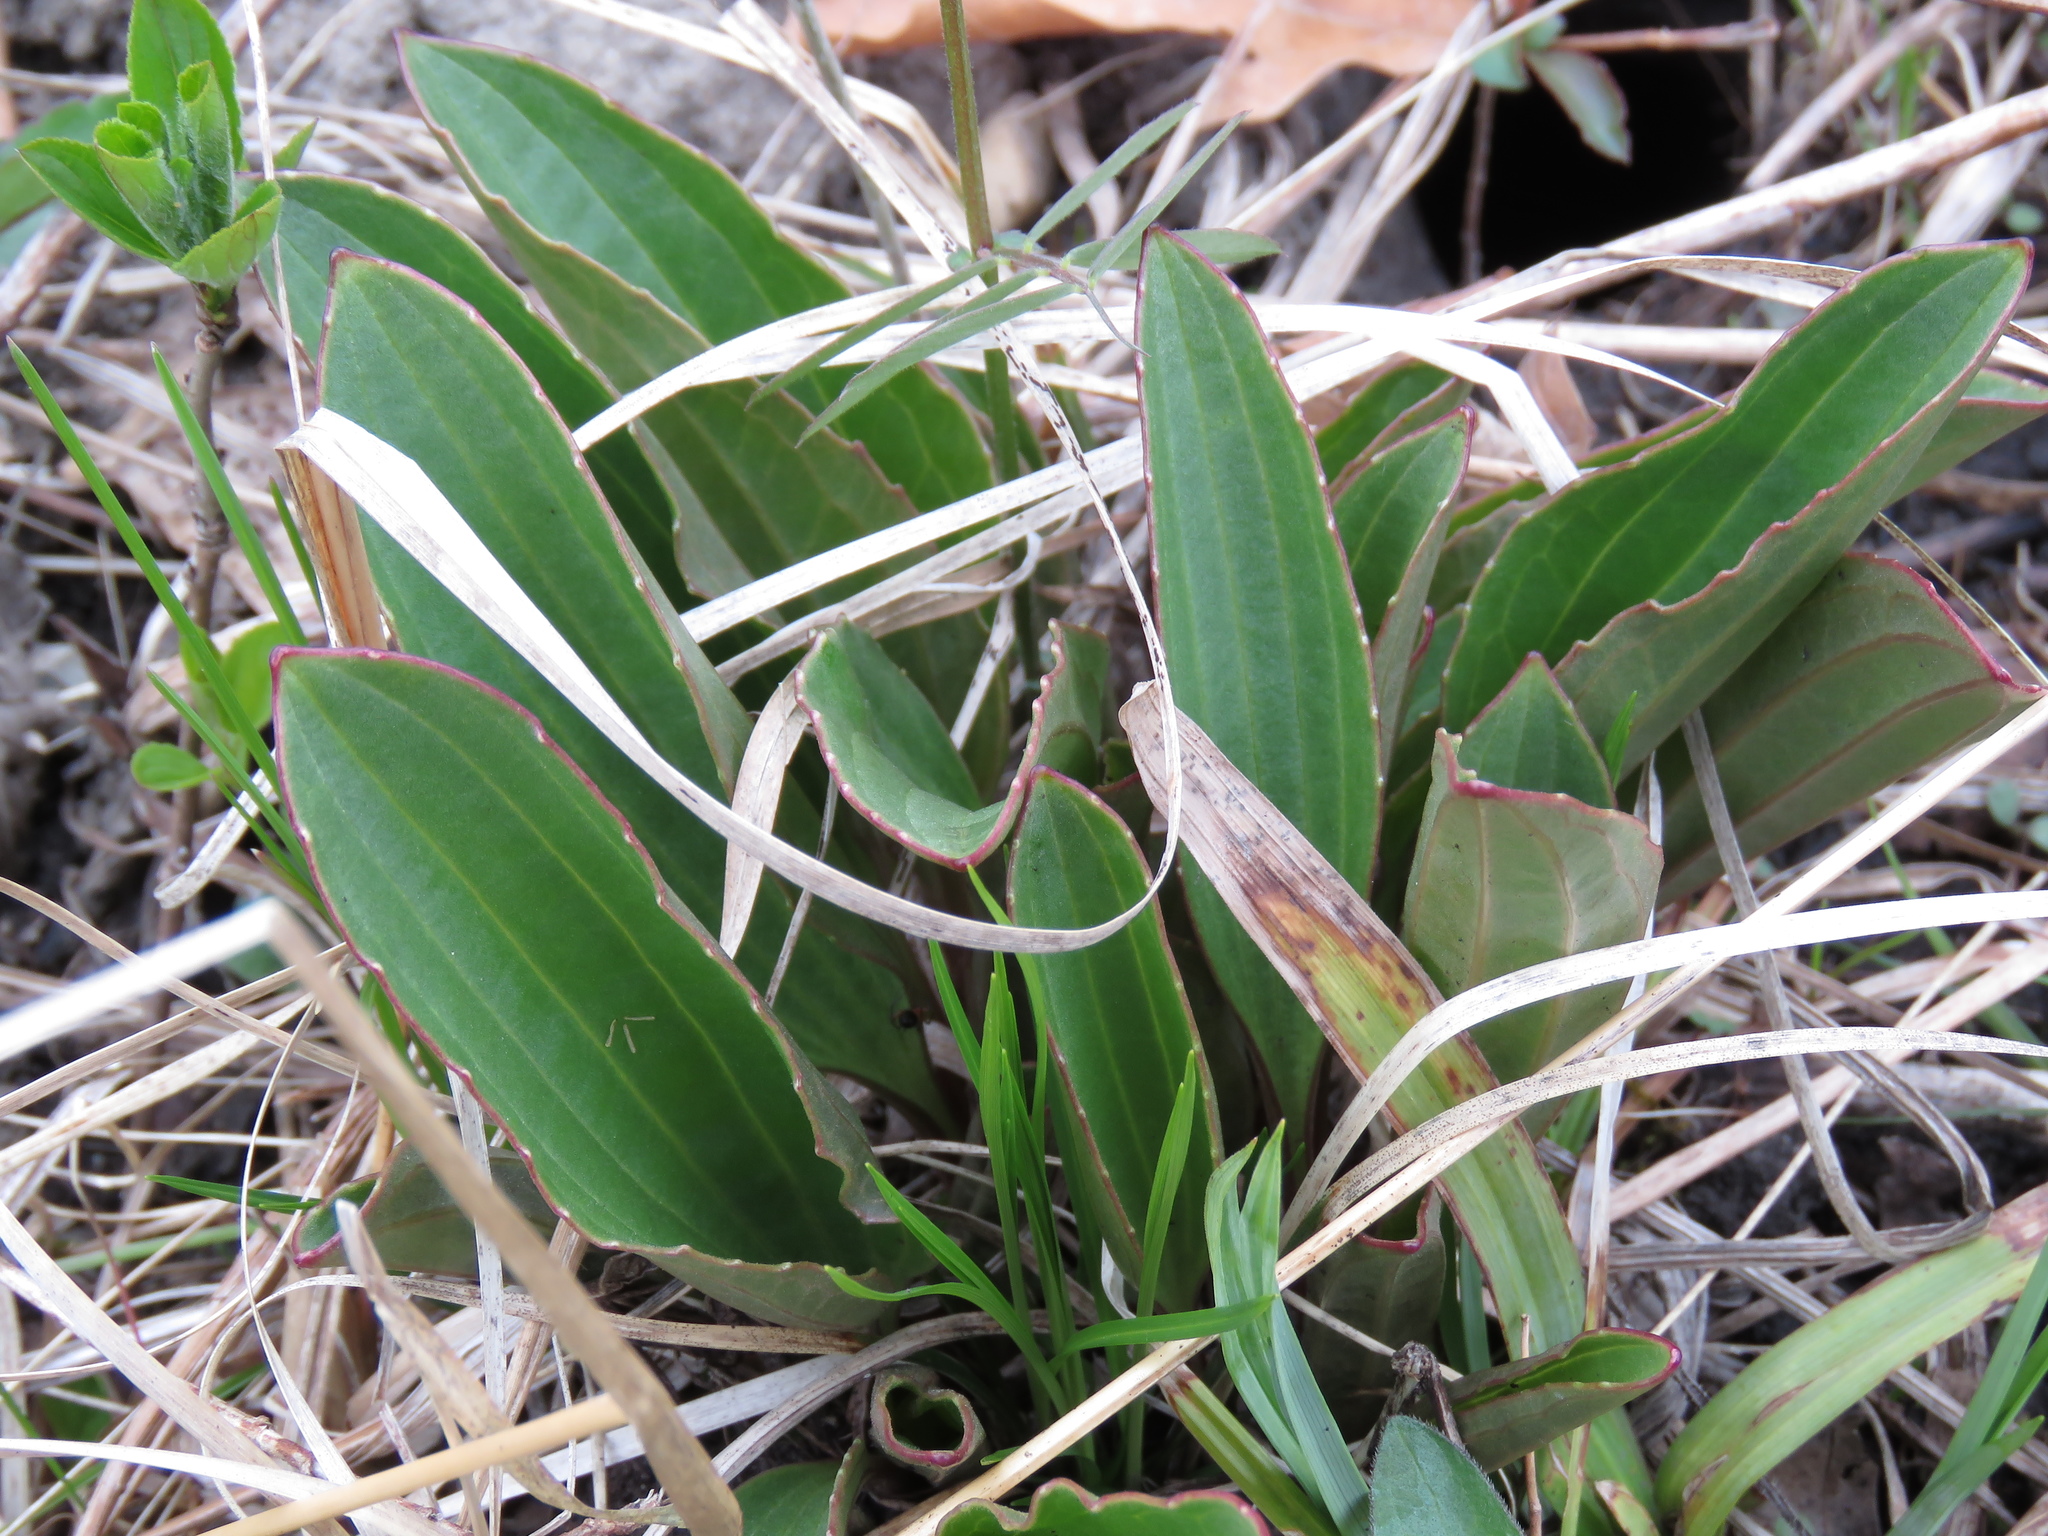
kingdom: Plantae
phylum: Tracheophyta
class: Magnoliopsida
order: Asterales
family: Asteraceae
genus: Arnoglossum
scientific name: Arnoglossum plantagineum
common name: Groove-stemmed indian-plantain
